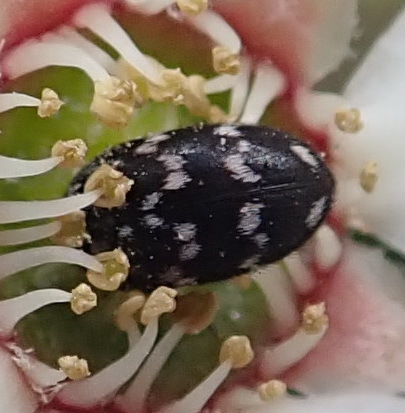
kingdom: Animalia
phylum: Arthropoda
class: Insecta
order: Coleoptera
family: Dermestidae
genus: Attagenus
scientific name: Attagenus
